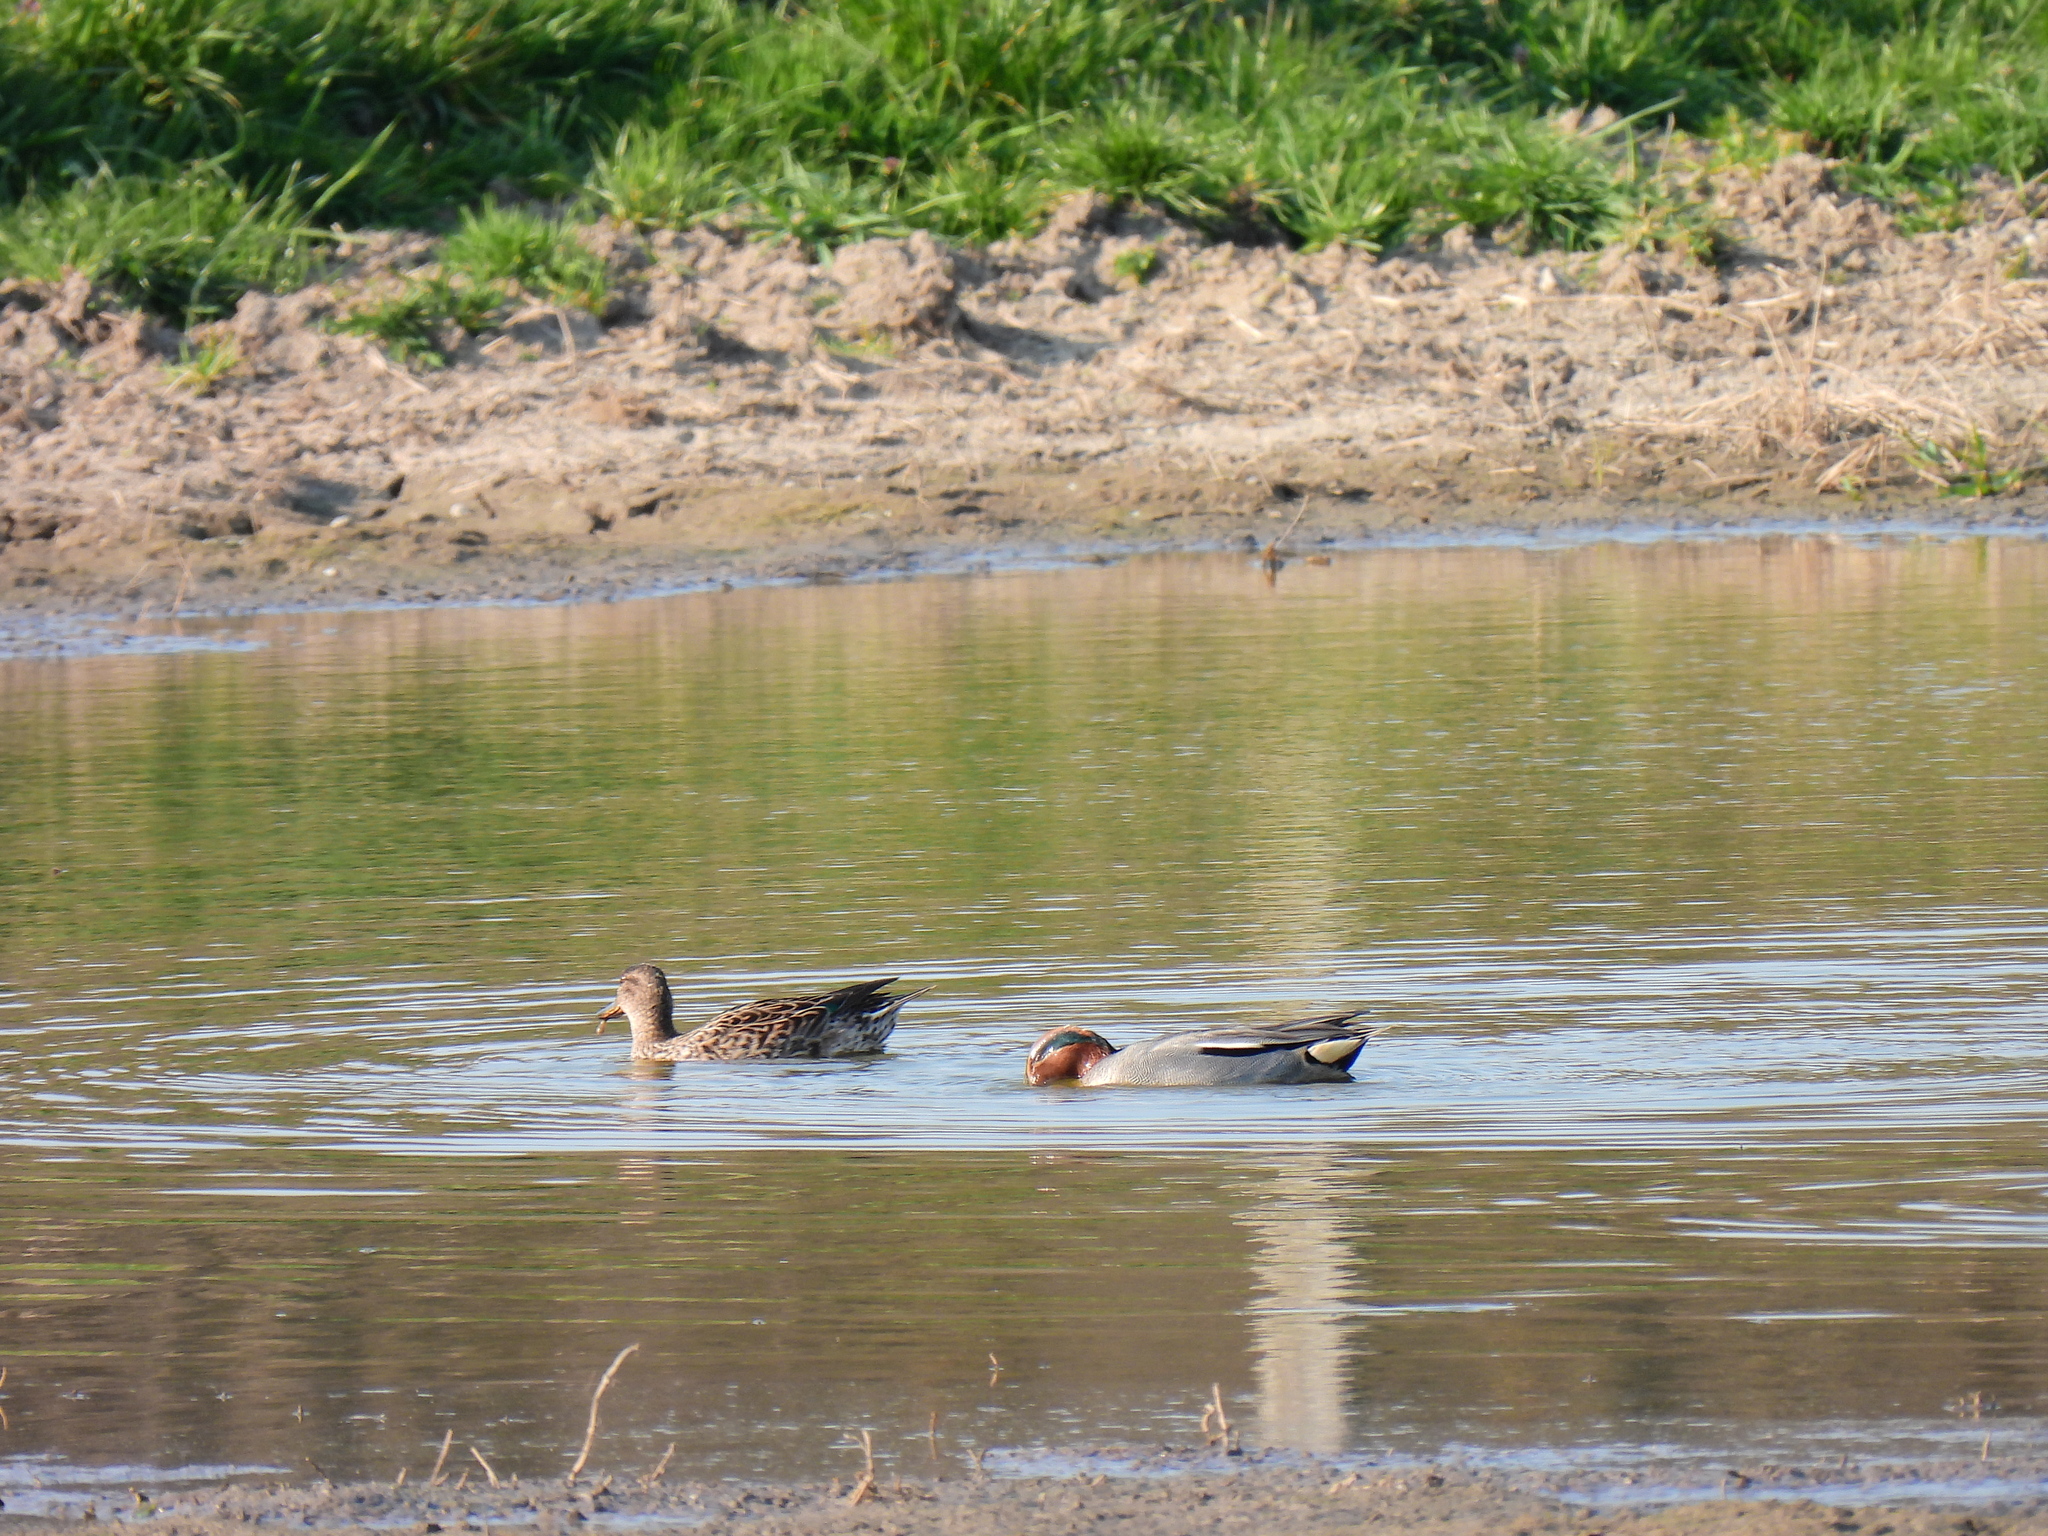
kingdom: Animalia
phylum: Chordata
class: Aves
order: Anseriformes
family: Anatidae
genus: Anas
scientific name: Anas crecca
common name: Eurasian teal
